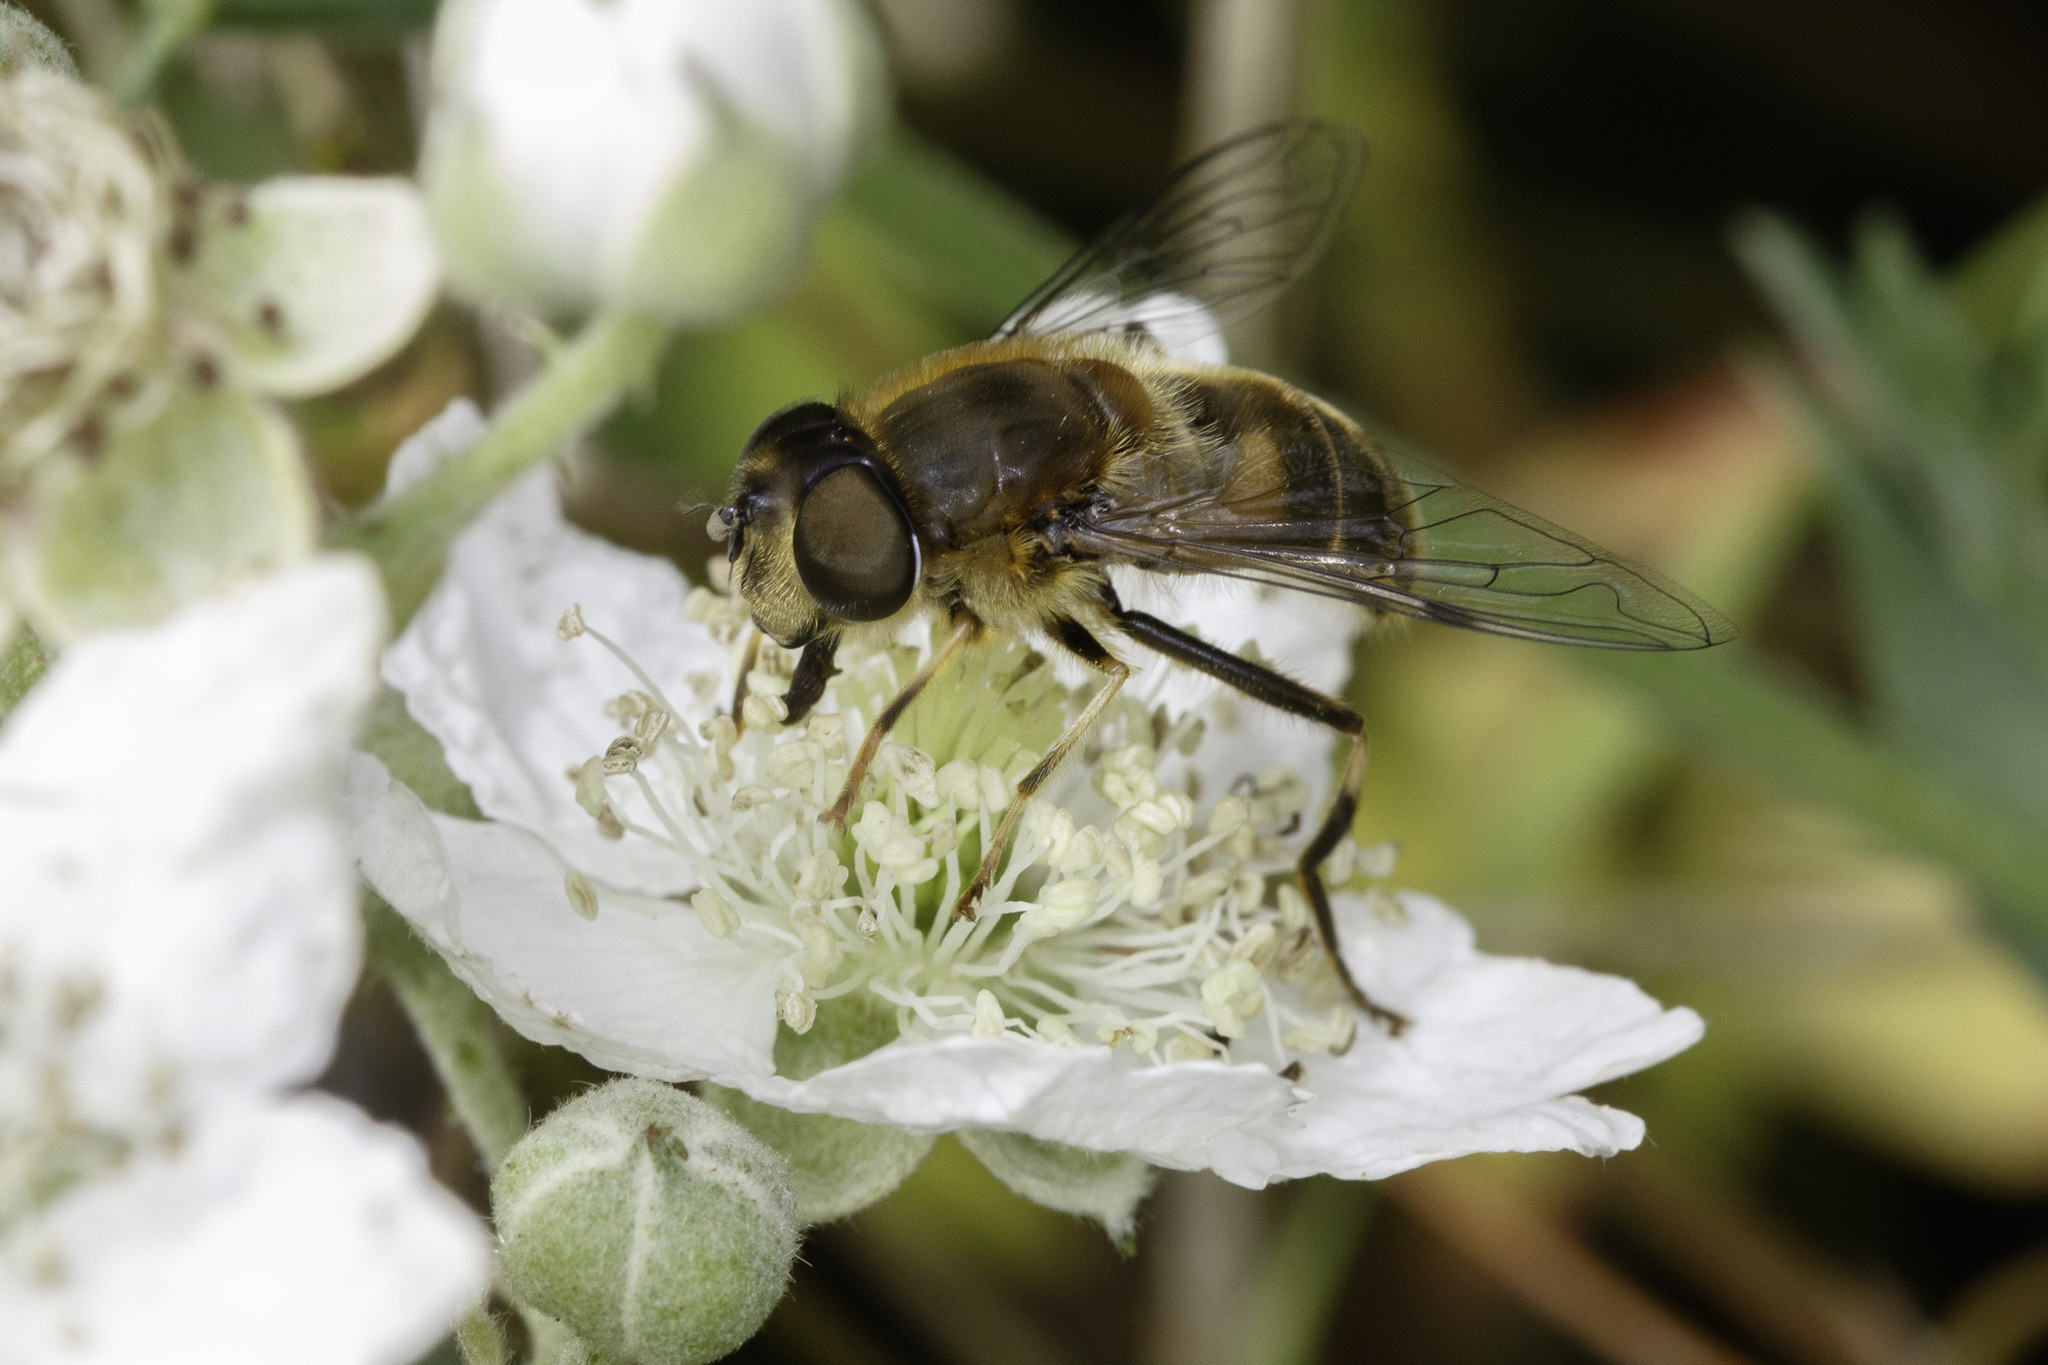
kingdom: Animalia
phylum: Arthropoda
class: Insecta
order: Diptera
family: Syrphidae
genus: Eristalis
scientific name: Eristalis pertinax
